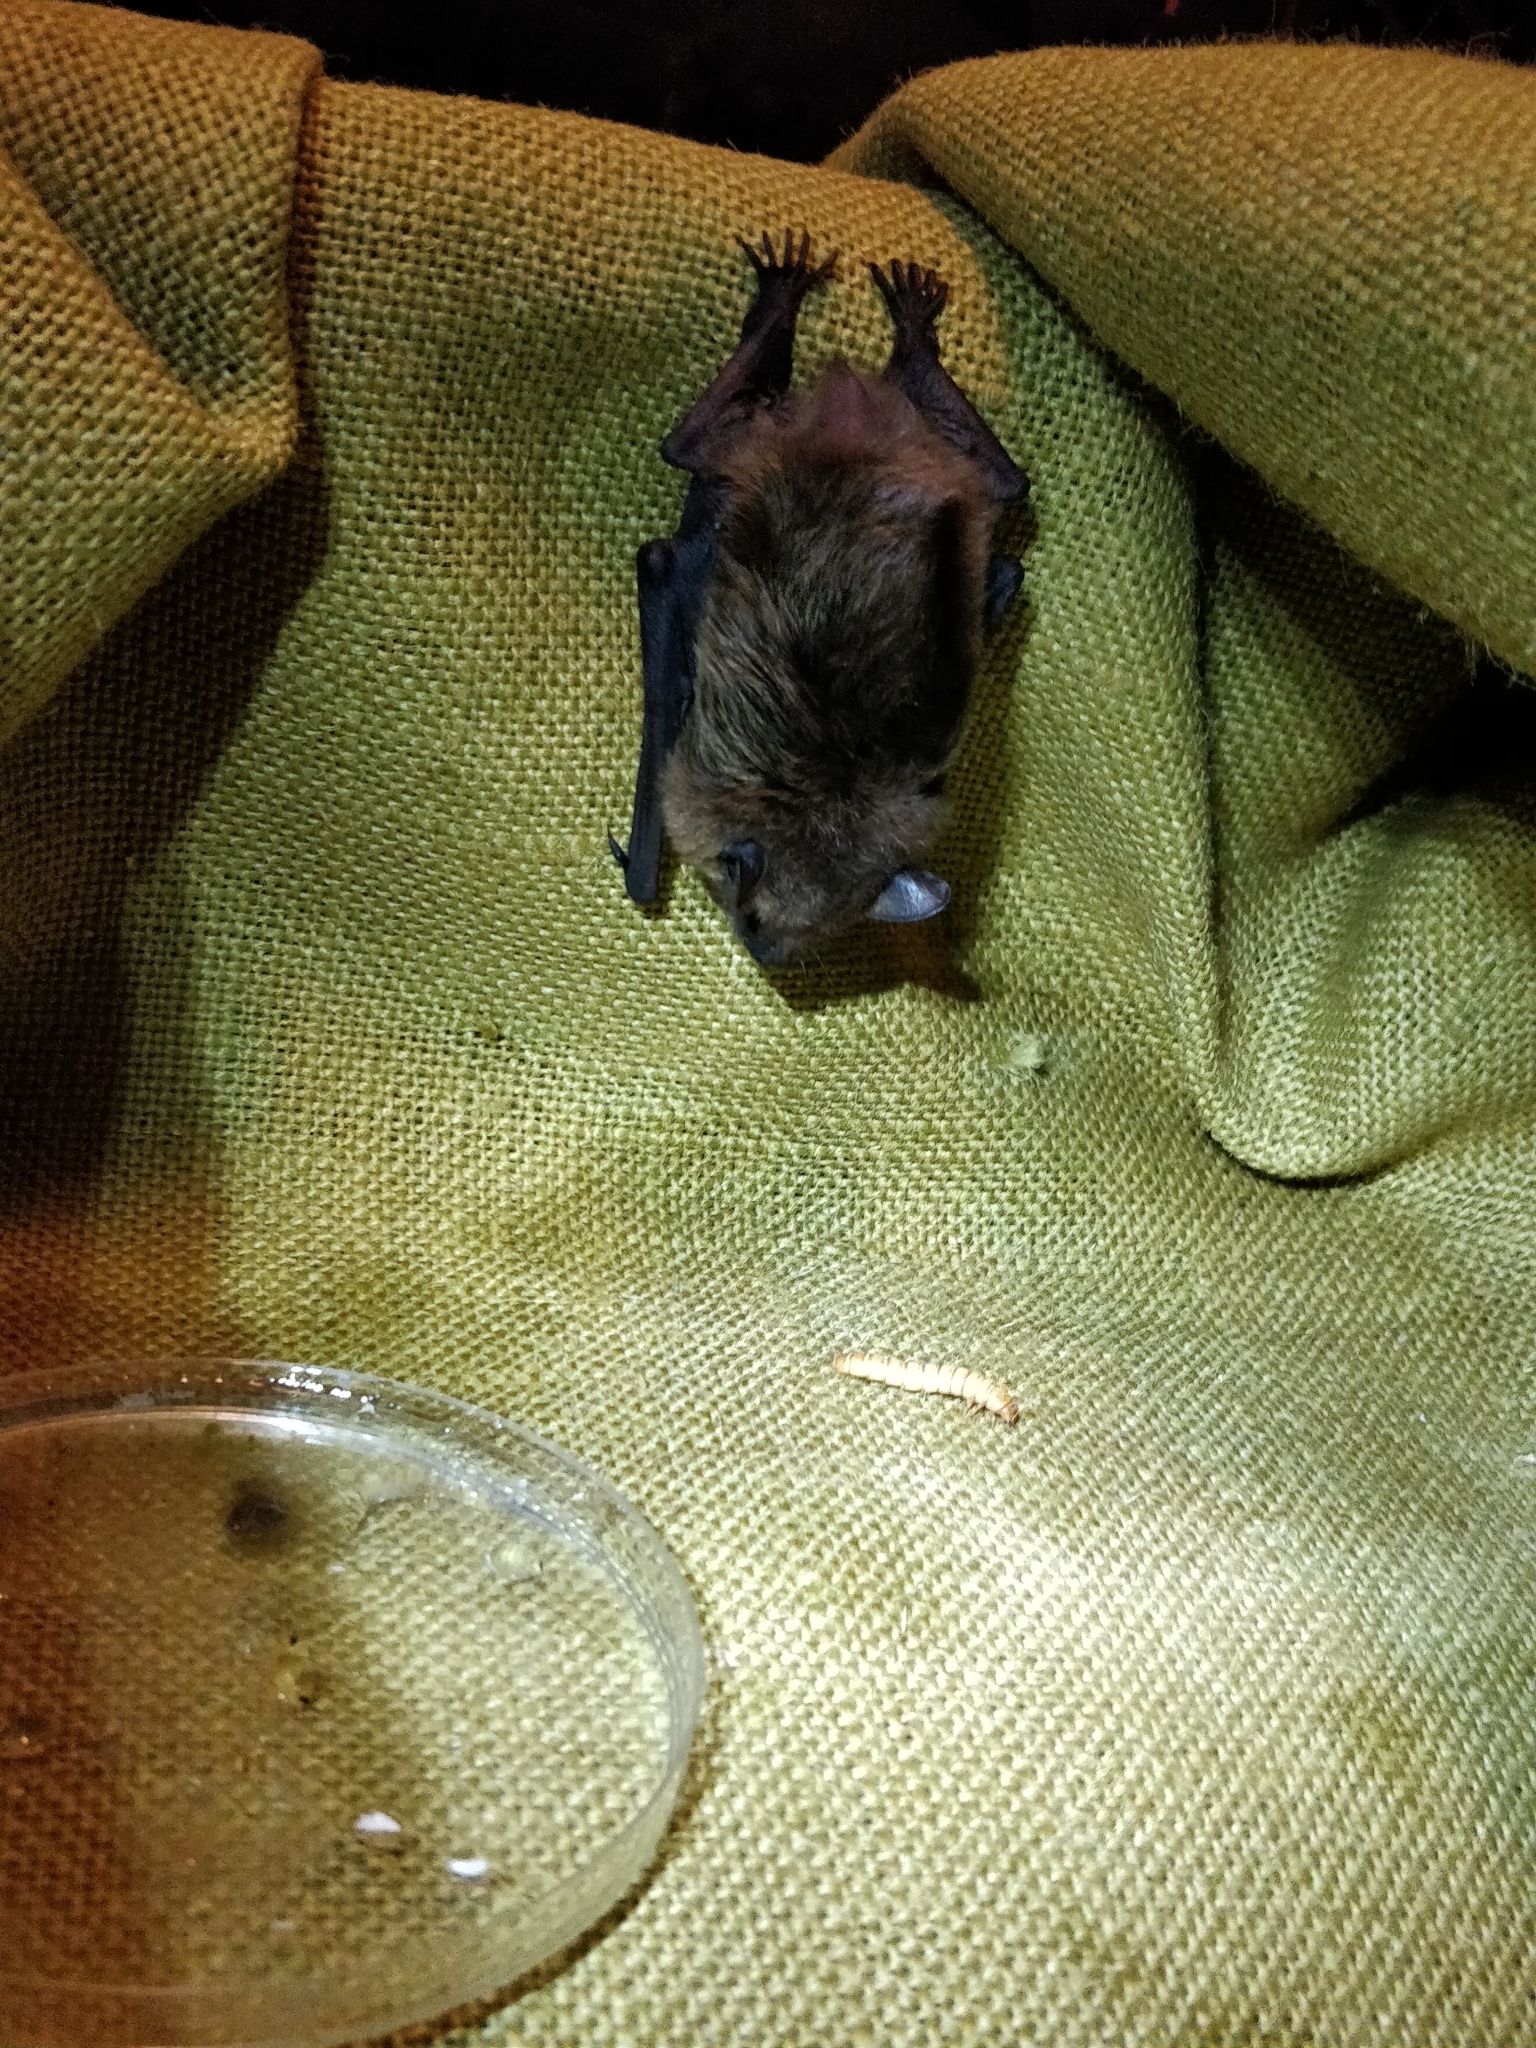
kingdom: Animalia
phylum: Chordata
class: Mammalia
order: Chiroptera
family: Vespertilionidae
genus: Eptesicus
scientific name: Eptesicus serotinus
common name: Serotine
